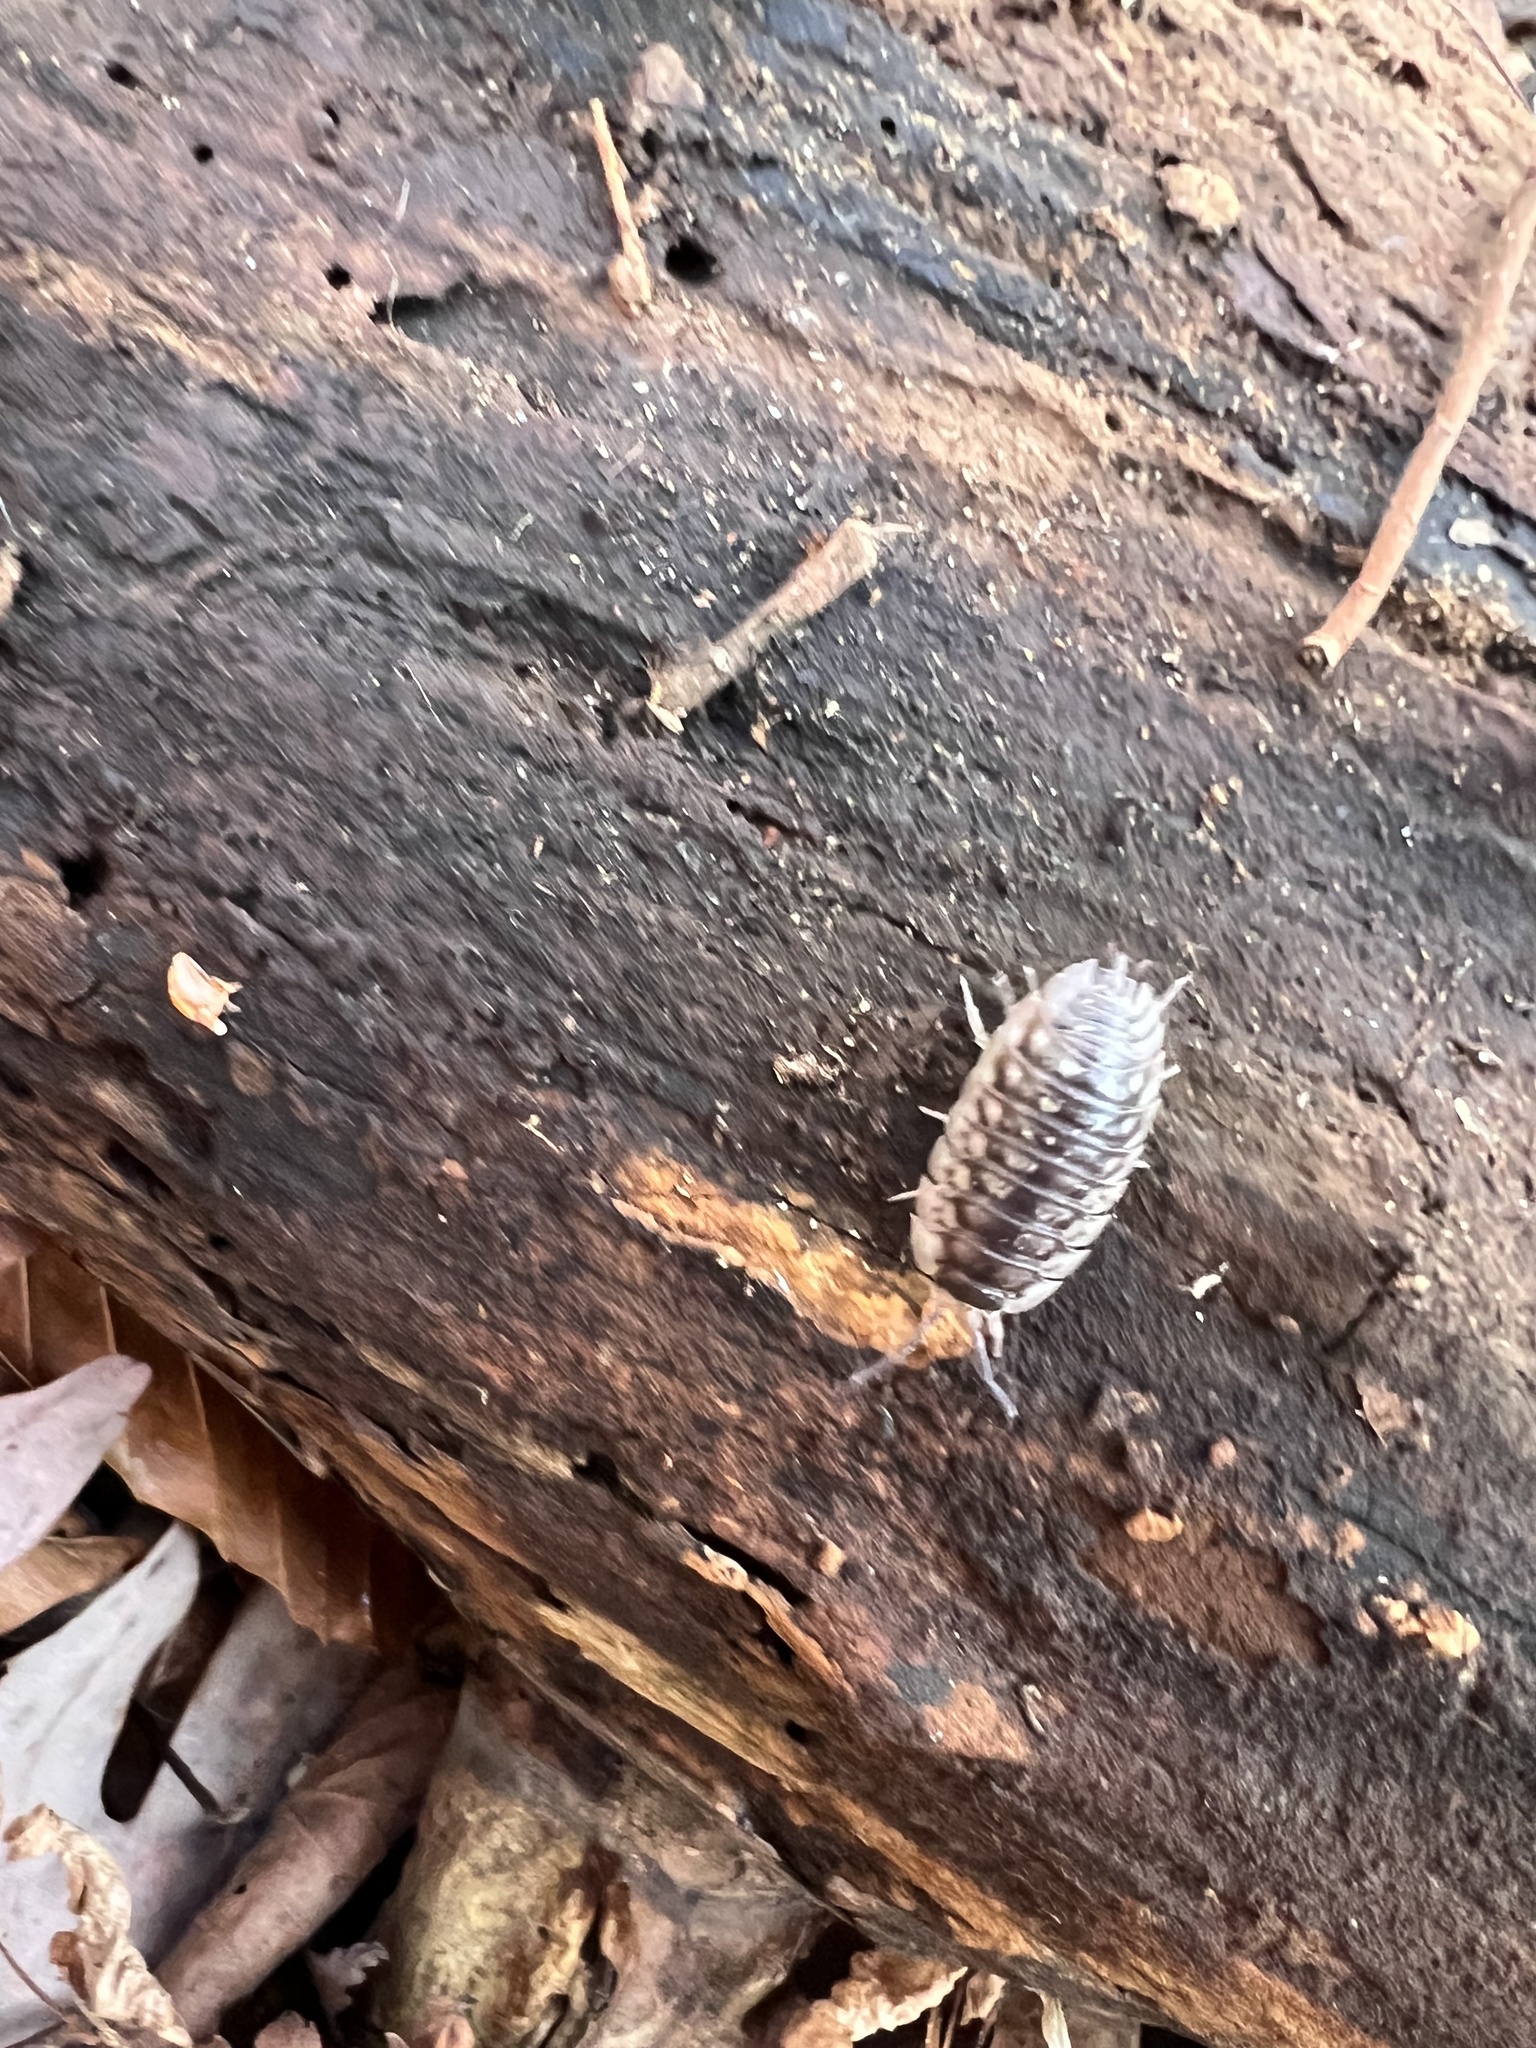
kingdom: Animalia
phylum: Arthropoda
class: Malacostraca
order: Isopoda
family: Oniscidae
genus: Oniscus
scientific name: Oniscus asellus
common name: Common shiny woodlouse
